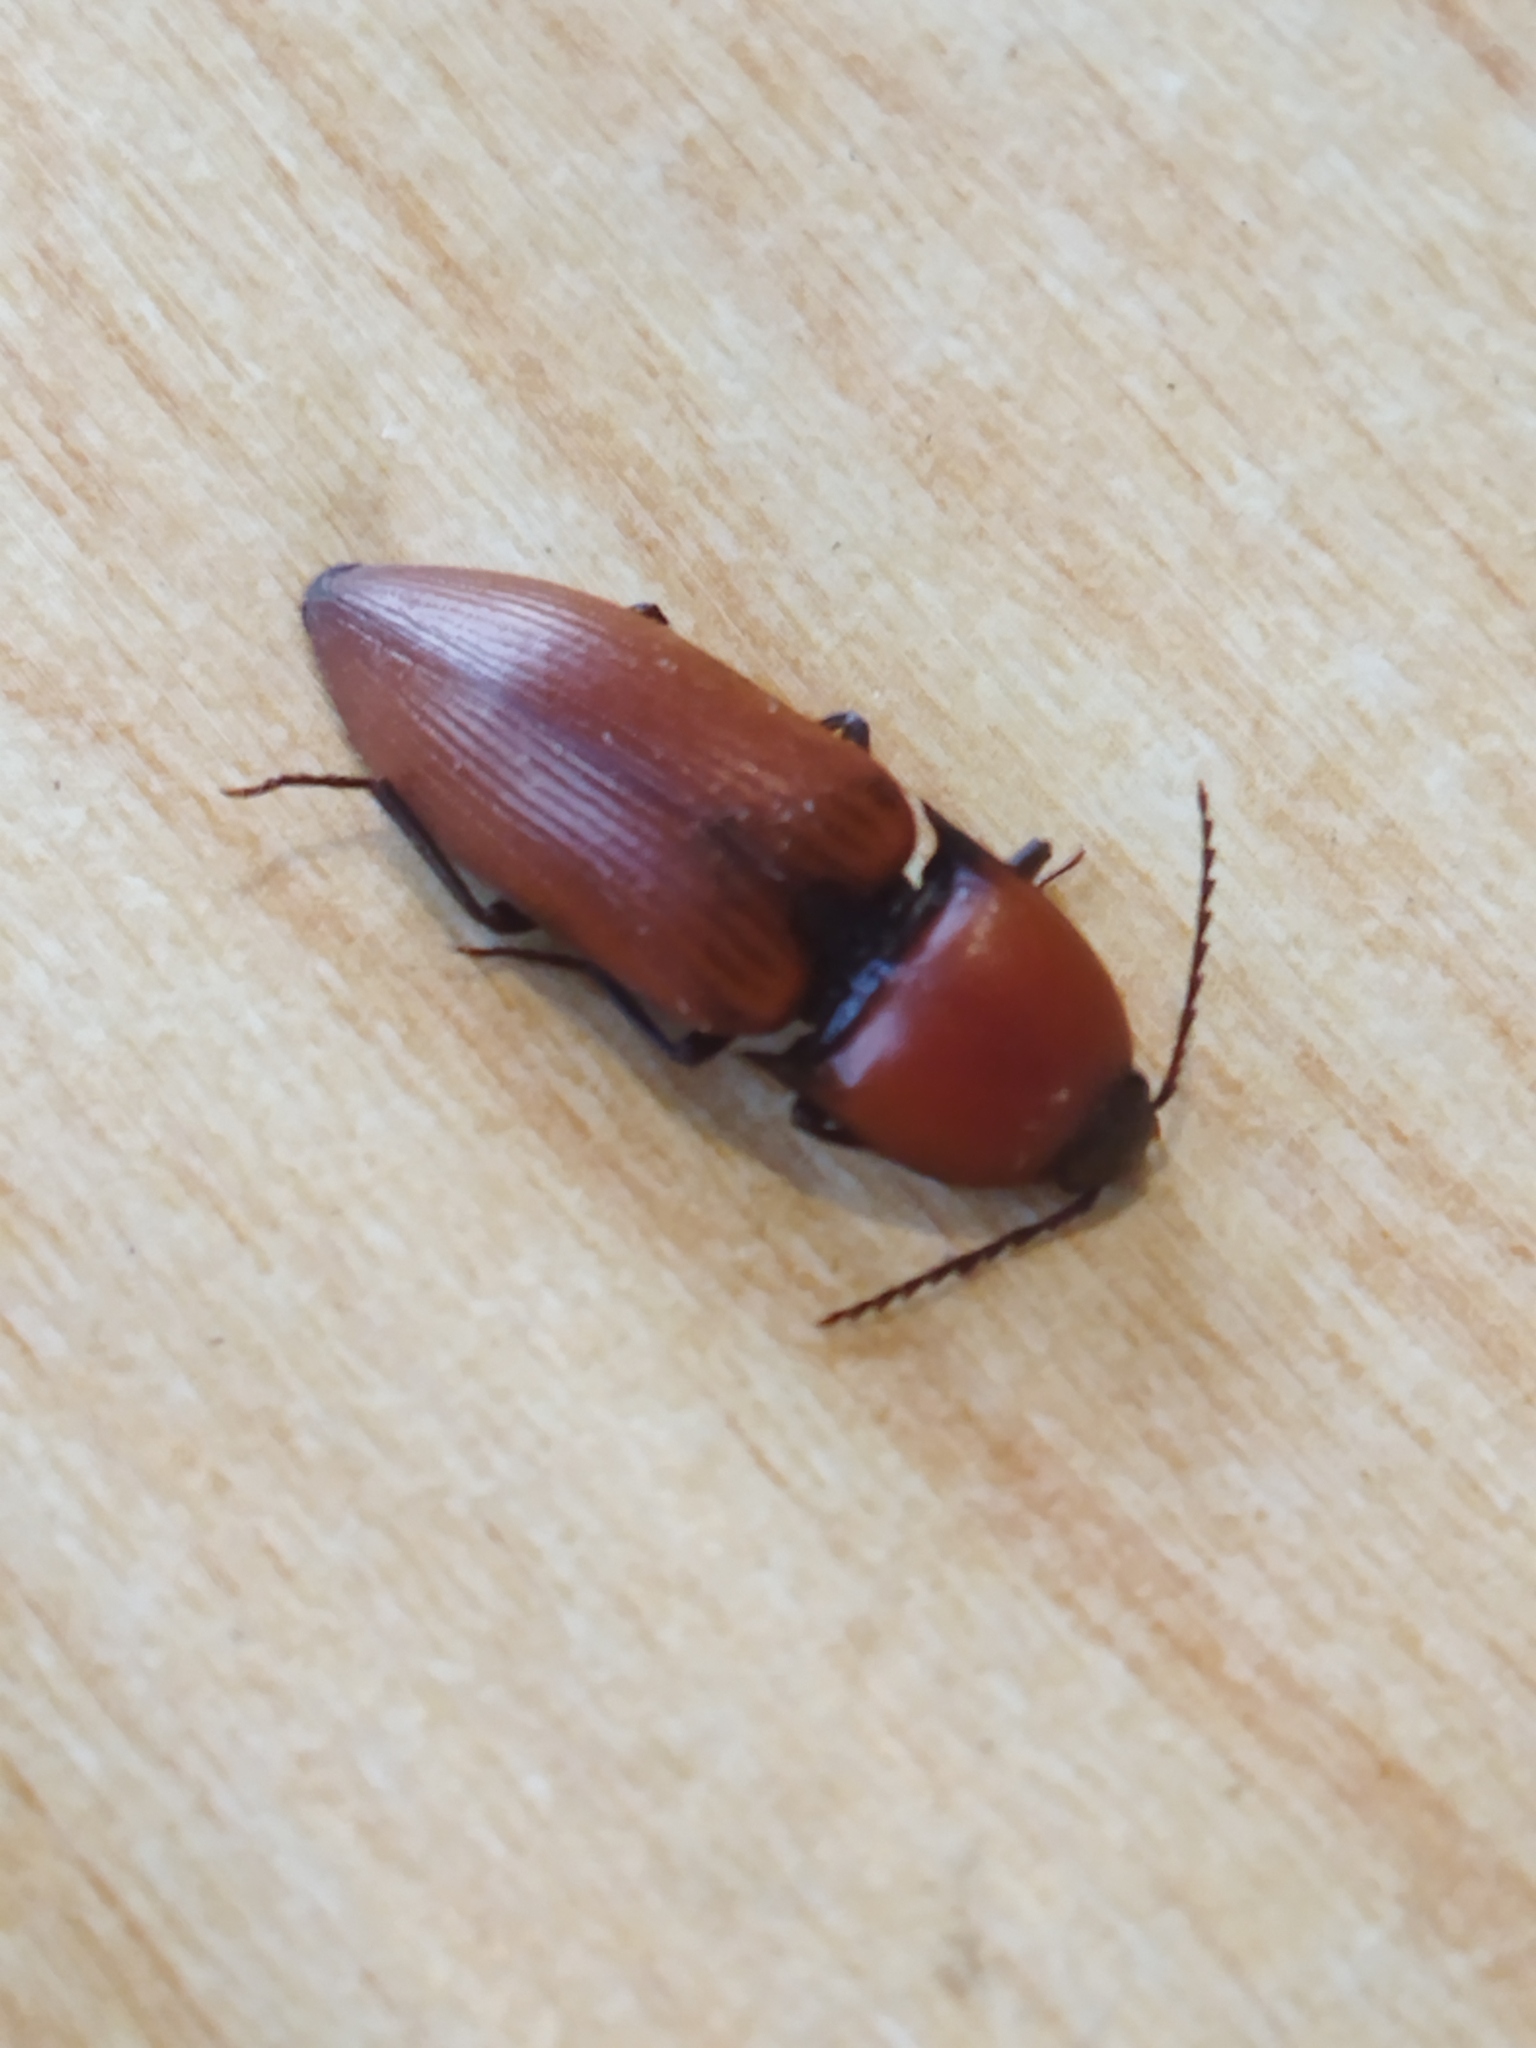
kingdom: Animalia
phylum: Arthropoda
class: Insecta
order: Coleoptera
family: Elateridae
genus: Elater
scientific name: Elater ferrugineus
